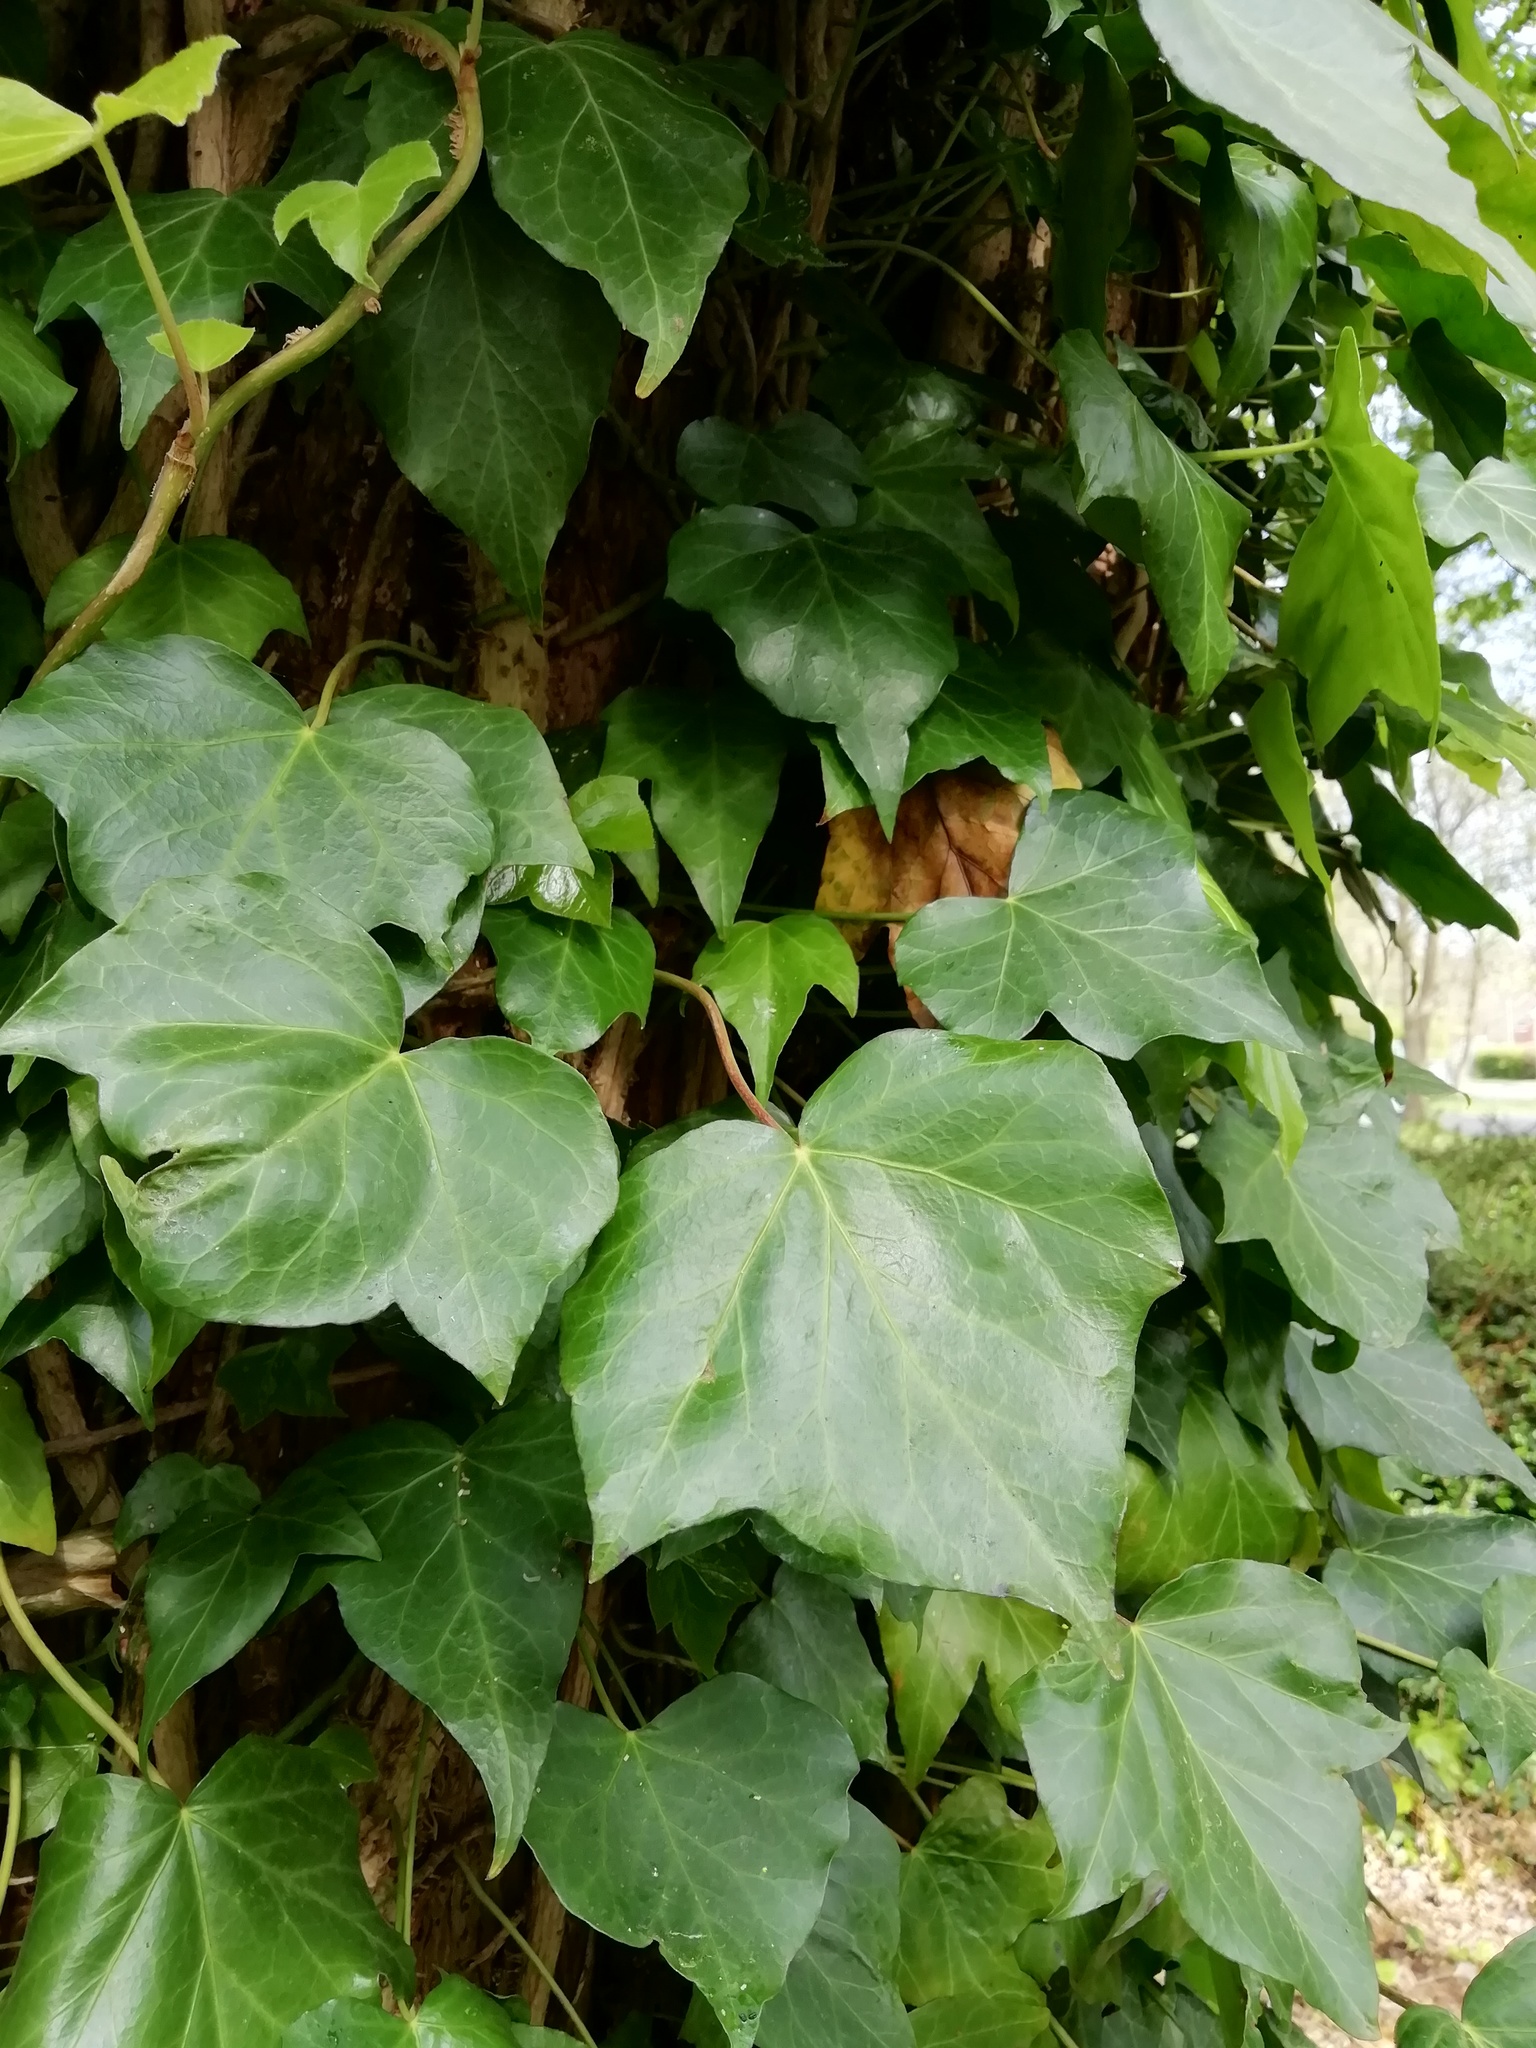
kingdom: Plantae
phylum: Tracheophyta
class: Magnoliopsida
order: Apiales
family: Araliaceae
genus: Hedera
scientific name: Hedera colchica
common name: Persian ivy
